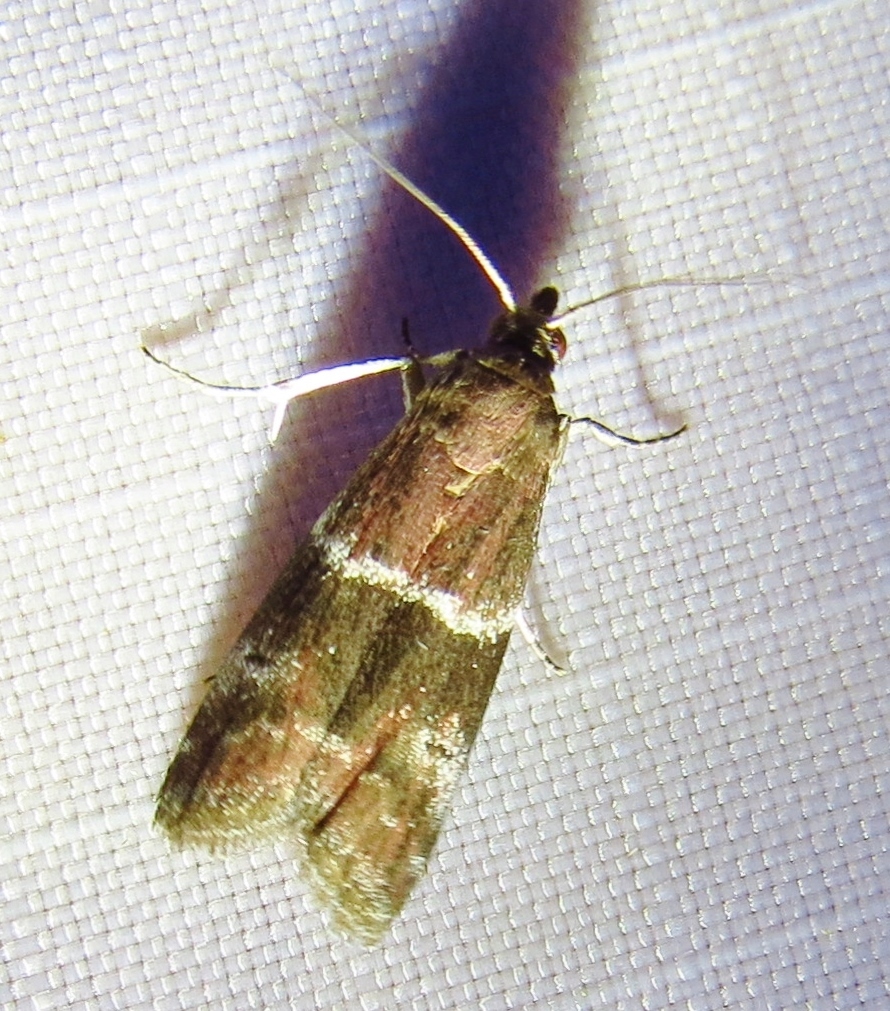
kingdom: Animalia
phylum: Arthropoda
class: Insecta
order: Lepidoptera
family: Pyralidae
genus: Moodna
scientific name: Moodna ostrinella
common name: Darker moodna moth
